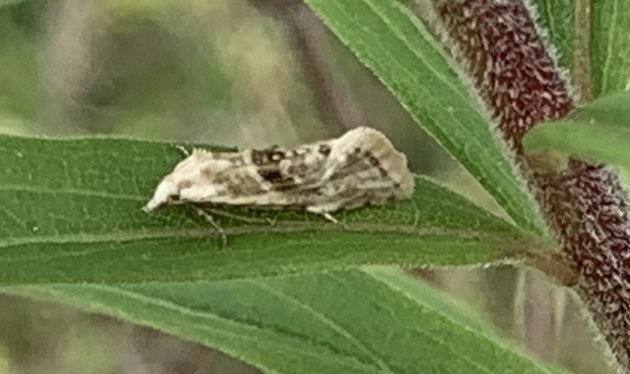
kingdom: Animalia
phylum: Arthropoda
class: Insecta
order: Lepidoptera
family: Tortricidae
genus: Cochylimorpha
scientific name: Cochylimorpha straminea
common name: Straw conch
